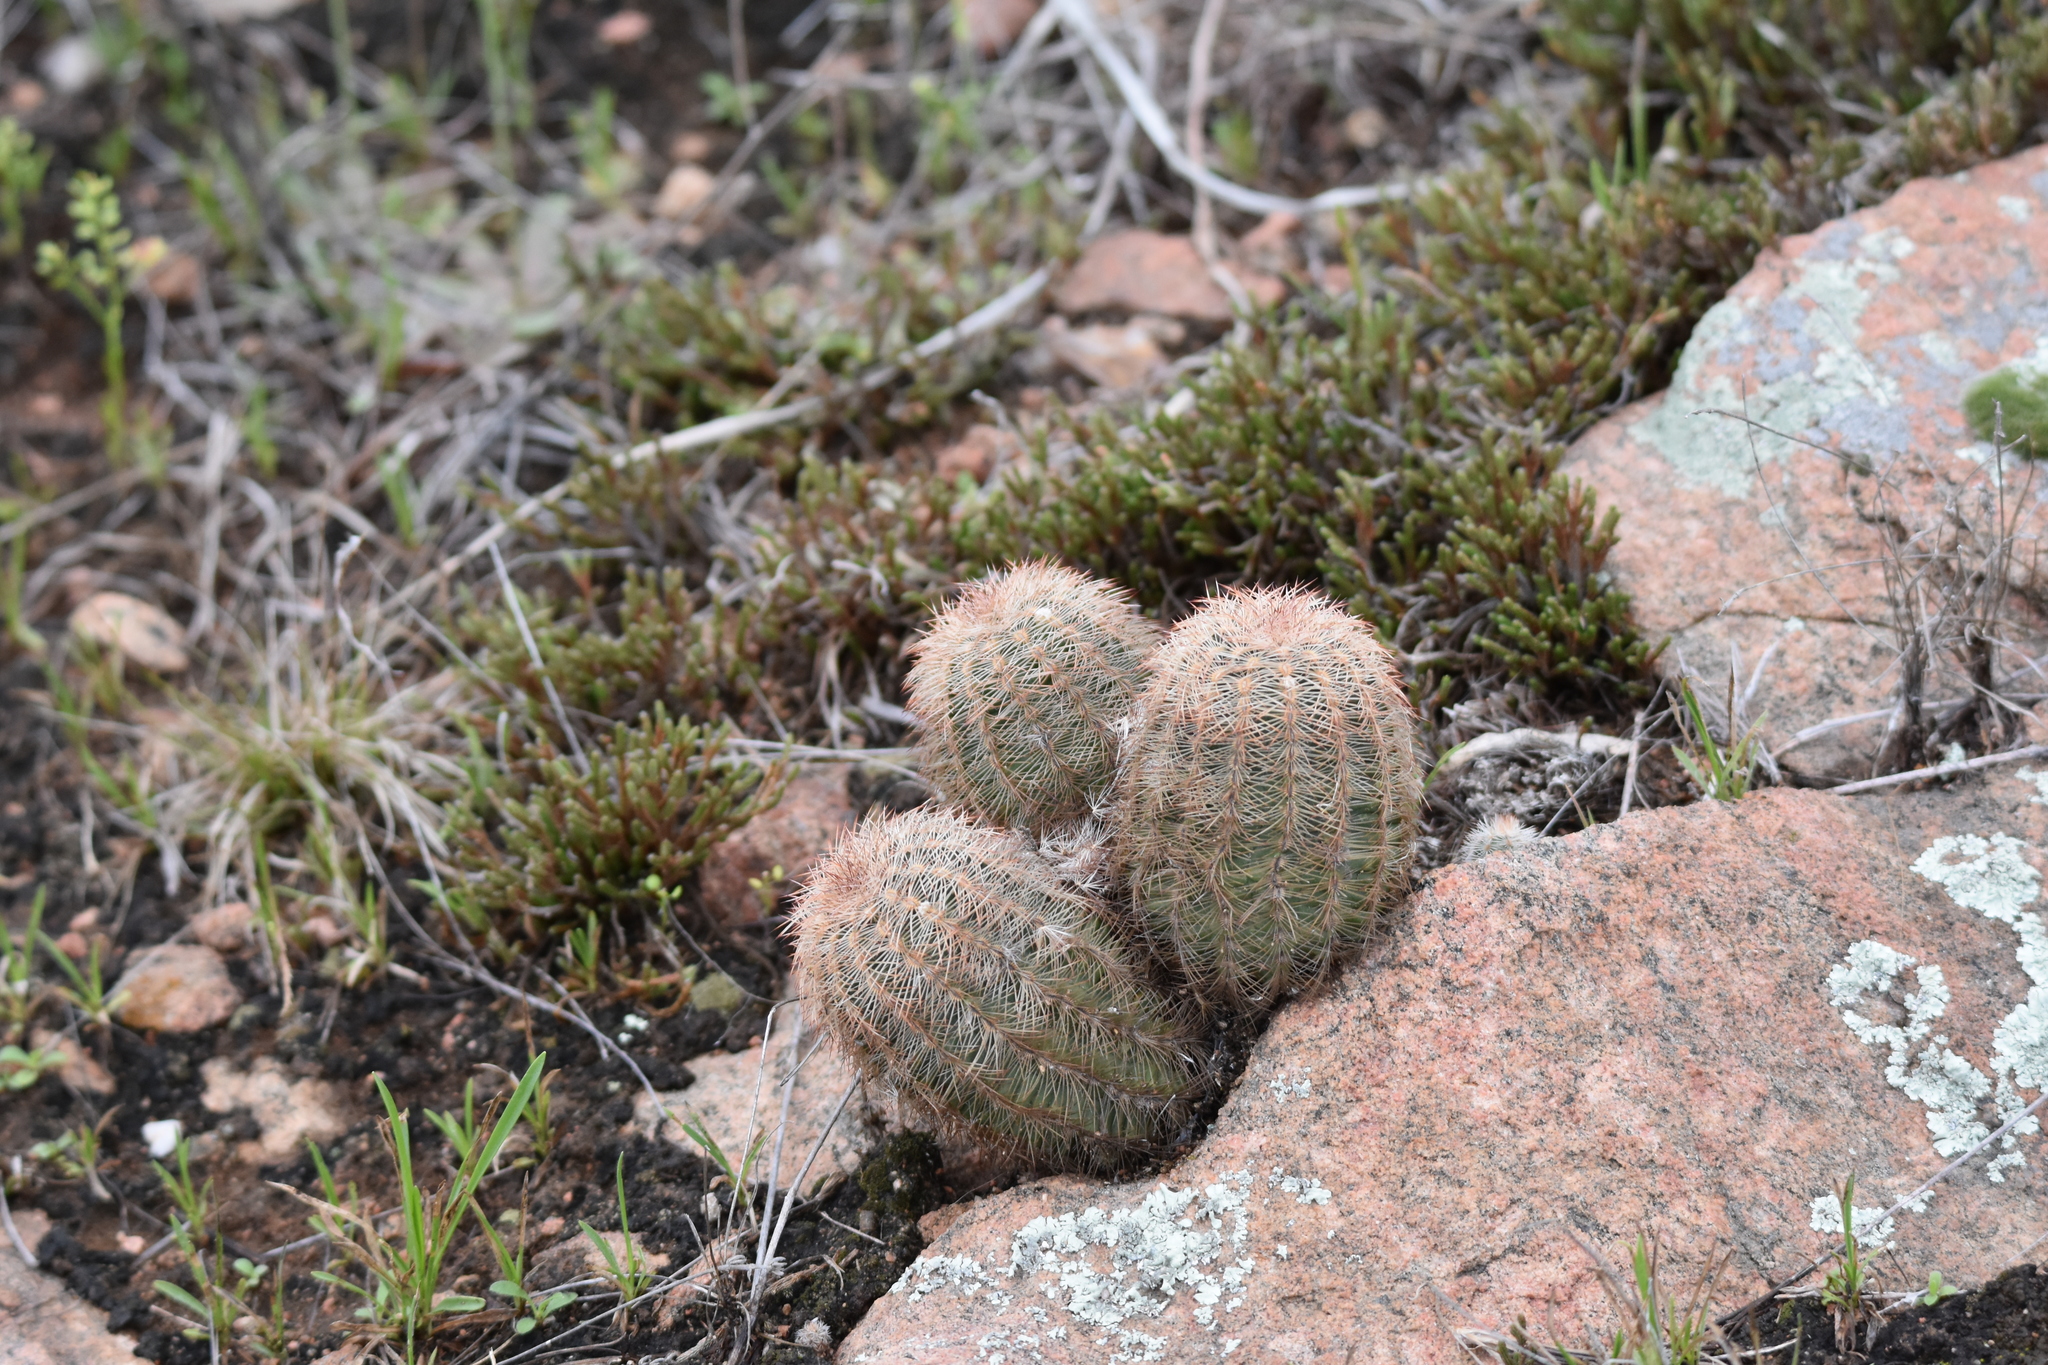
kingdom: Plantae
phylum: Tracheophyta
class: Magnoliopsida
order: Caryophyllales
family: Cactaceae
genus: Echinocereus
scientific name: Echinocereus reichenbachii
